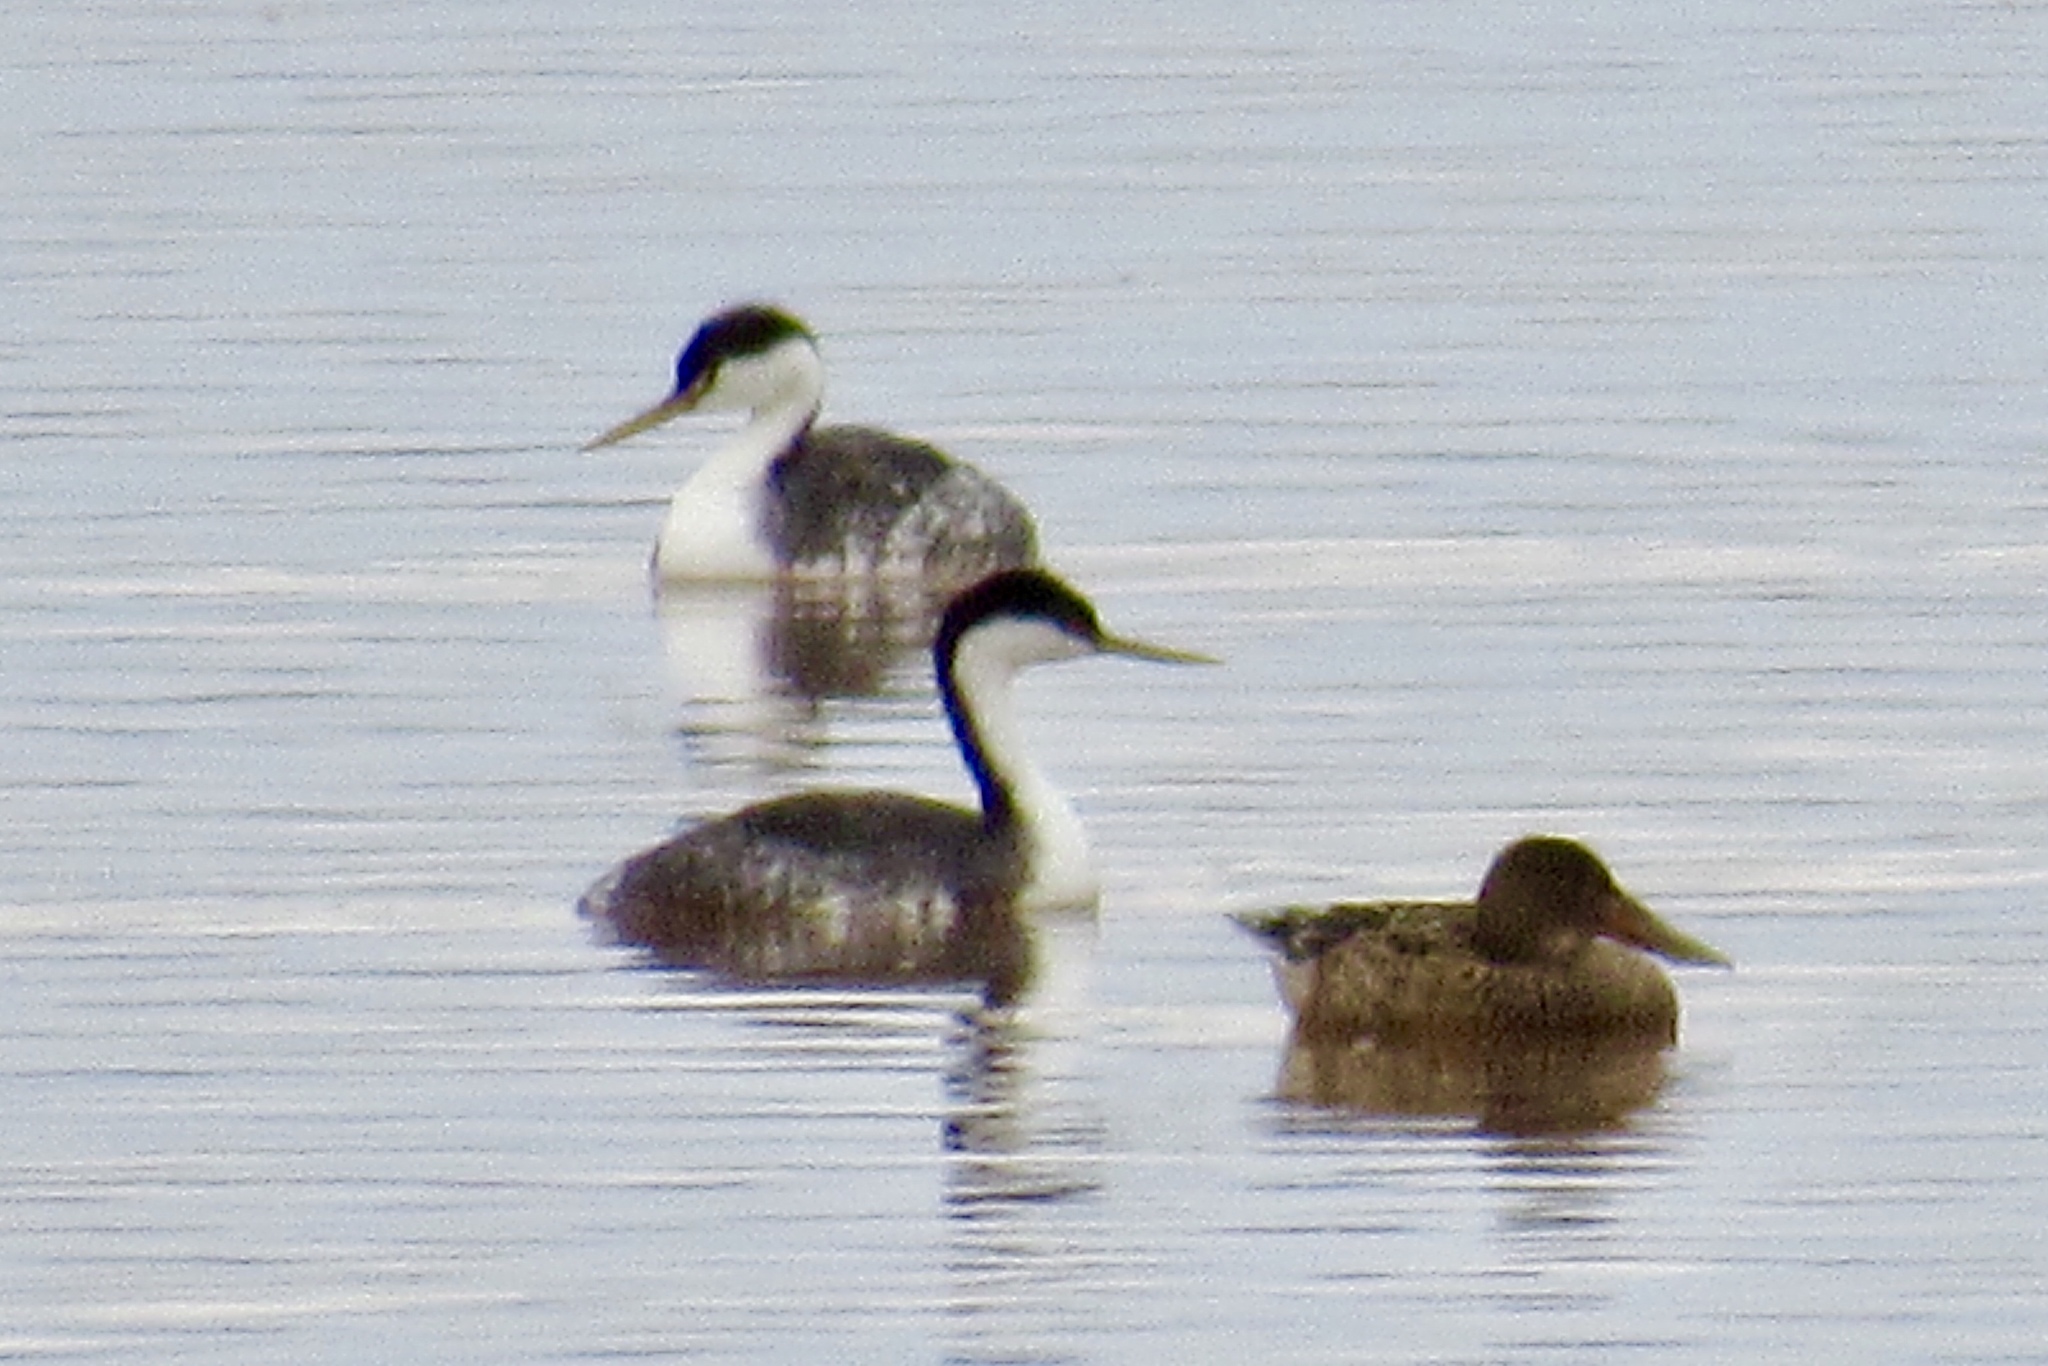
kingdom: Animalia
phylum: Chordata
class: Aves
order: Podicipediformes
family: Podicipedidae
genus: Aechmophorus
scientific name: Aechmophorus occidentalis
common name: Western grebe
